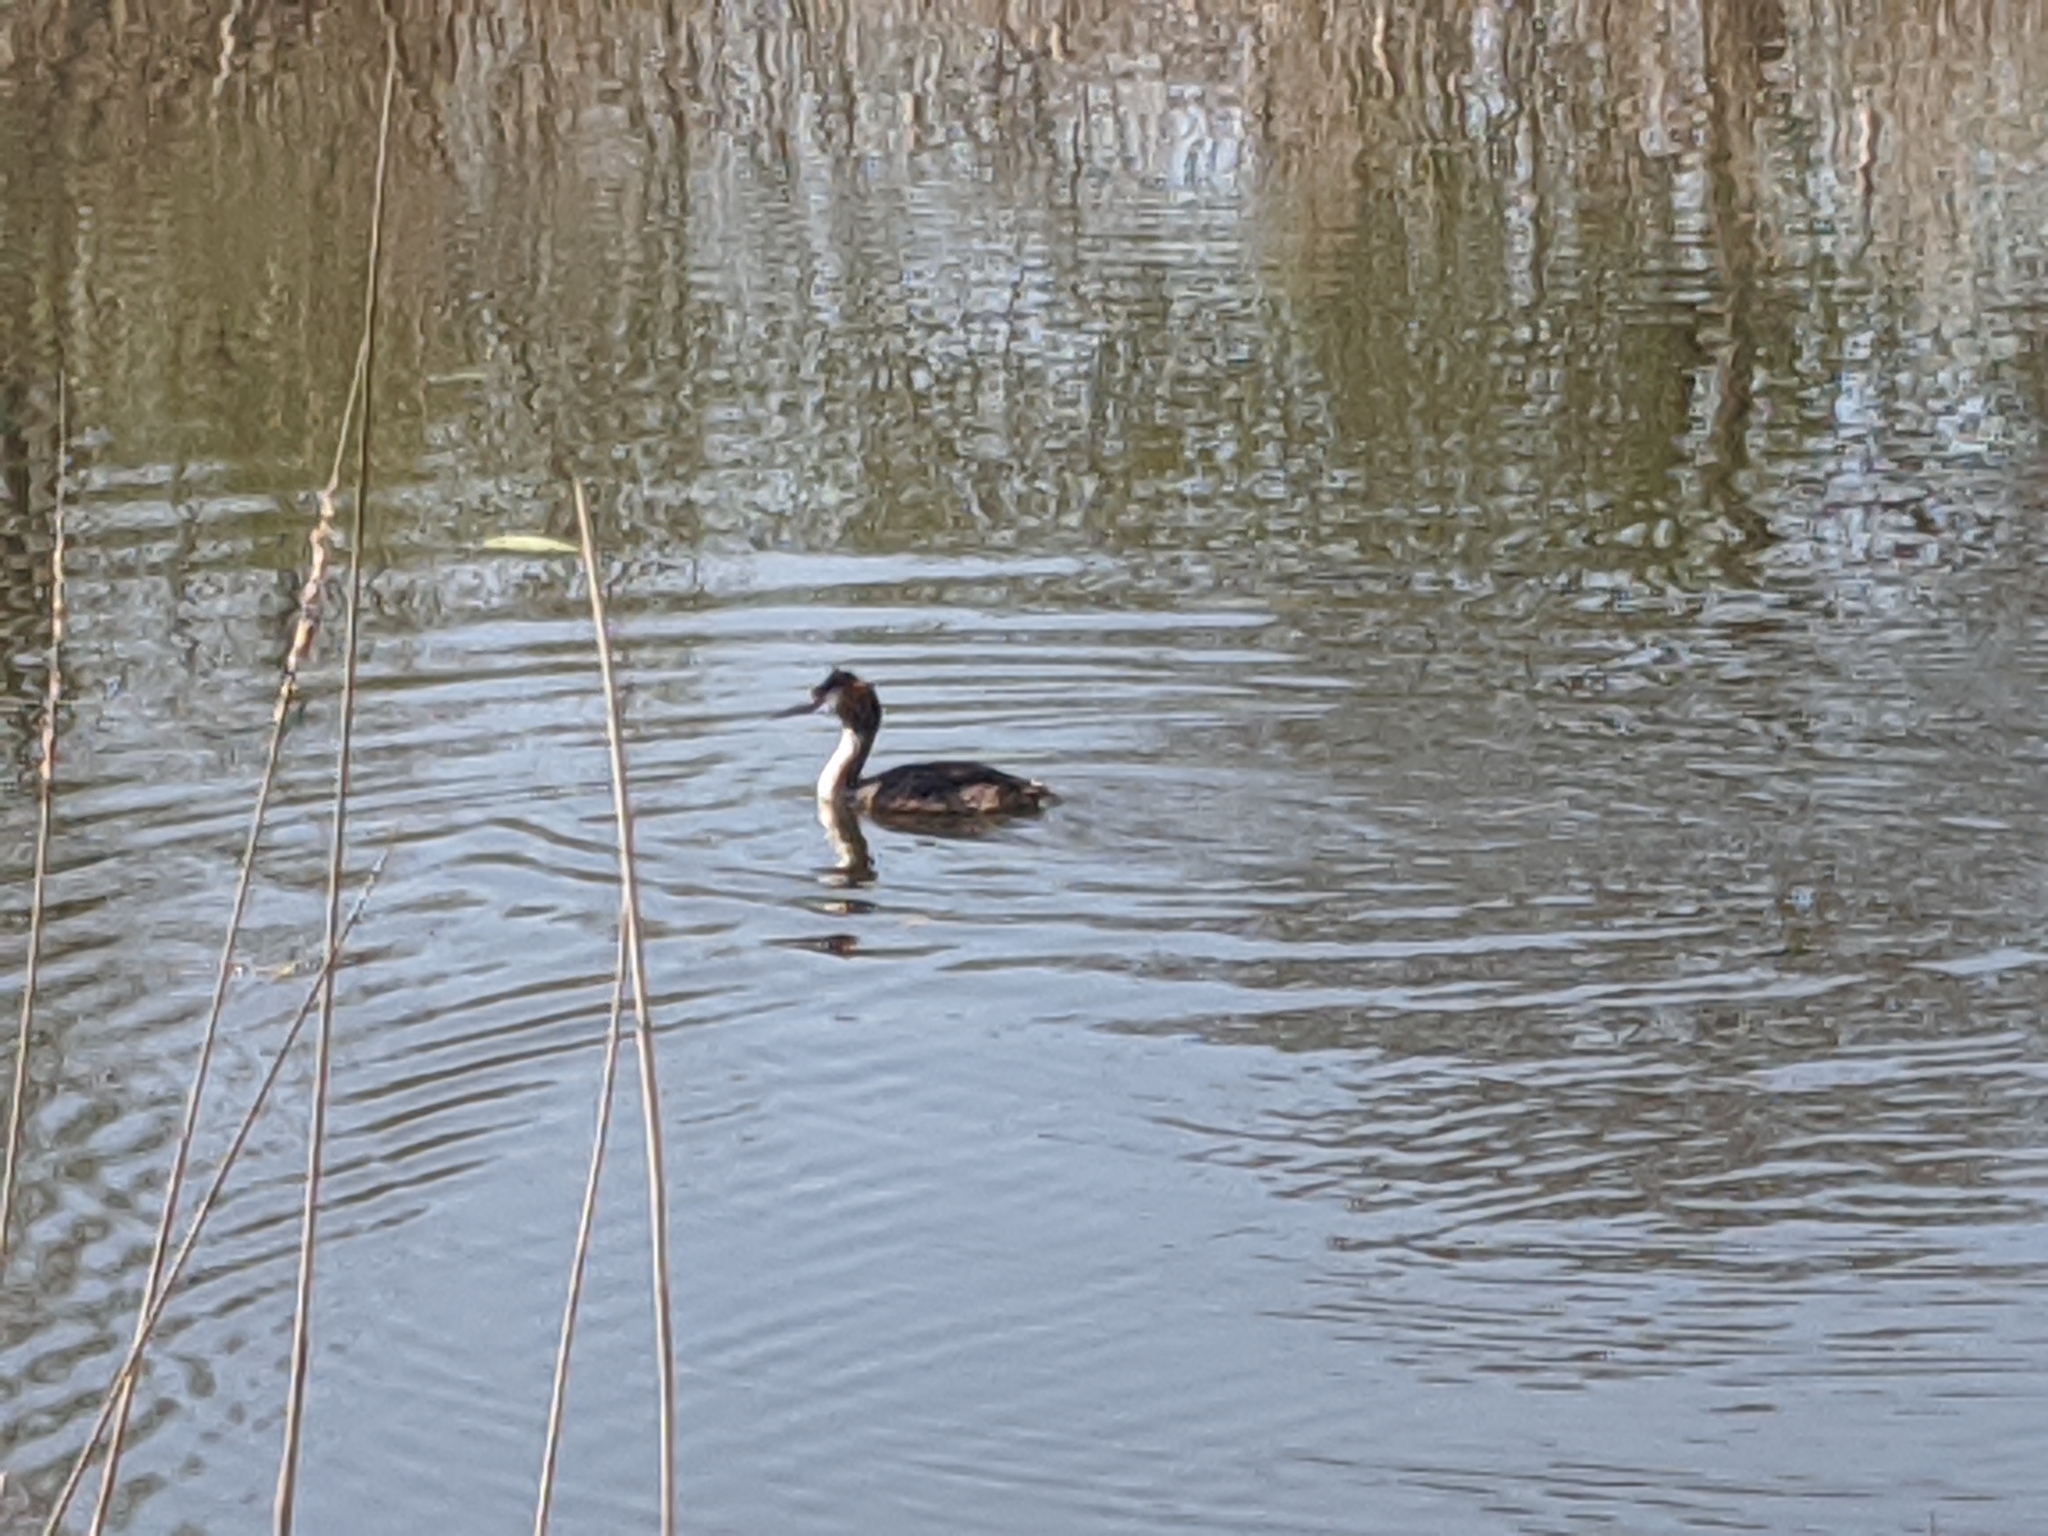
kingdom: Animalia
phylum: Chordata
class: Aves
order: Podicipediformes
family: Podicipedidae
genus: Podiceps
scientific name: Podiceps cristatus
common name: Great crested grebe
